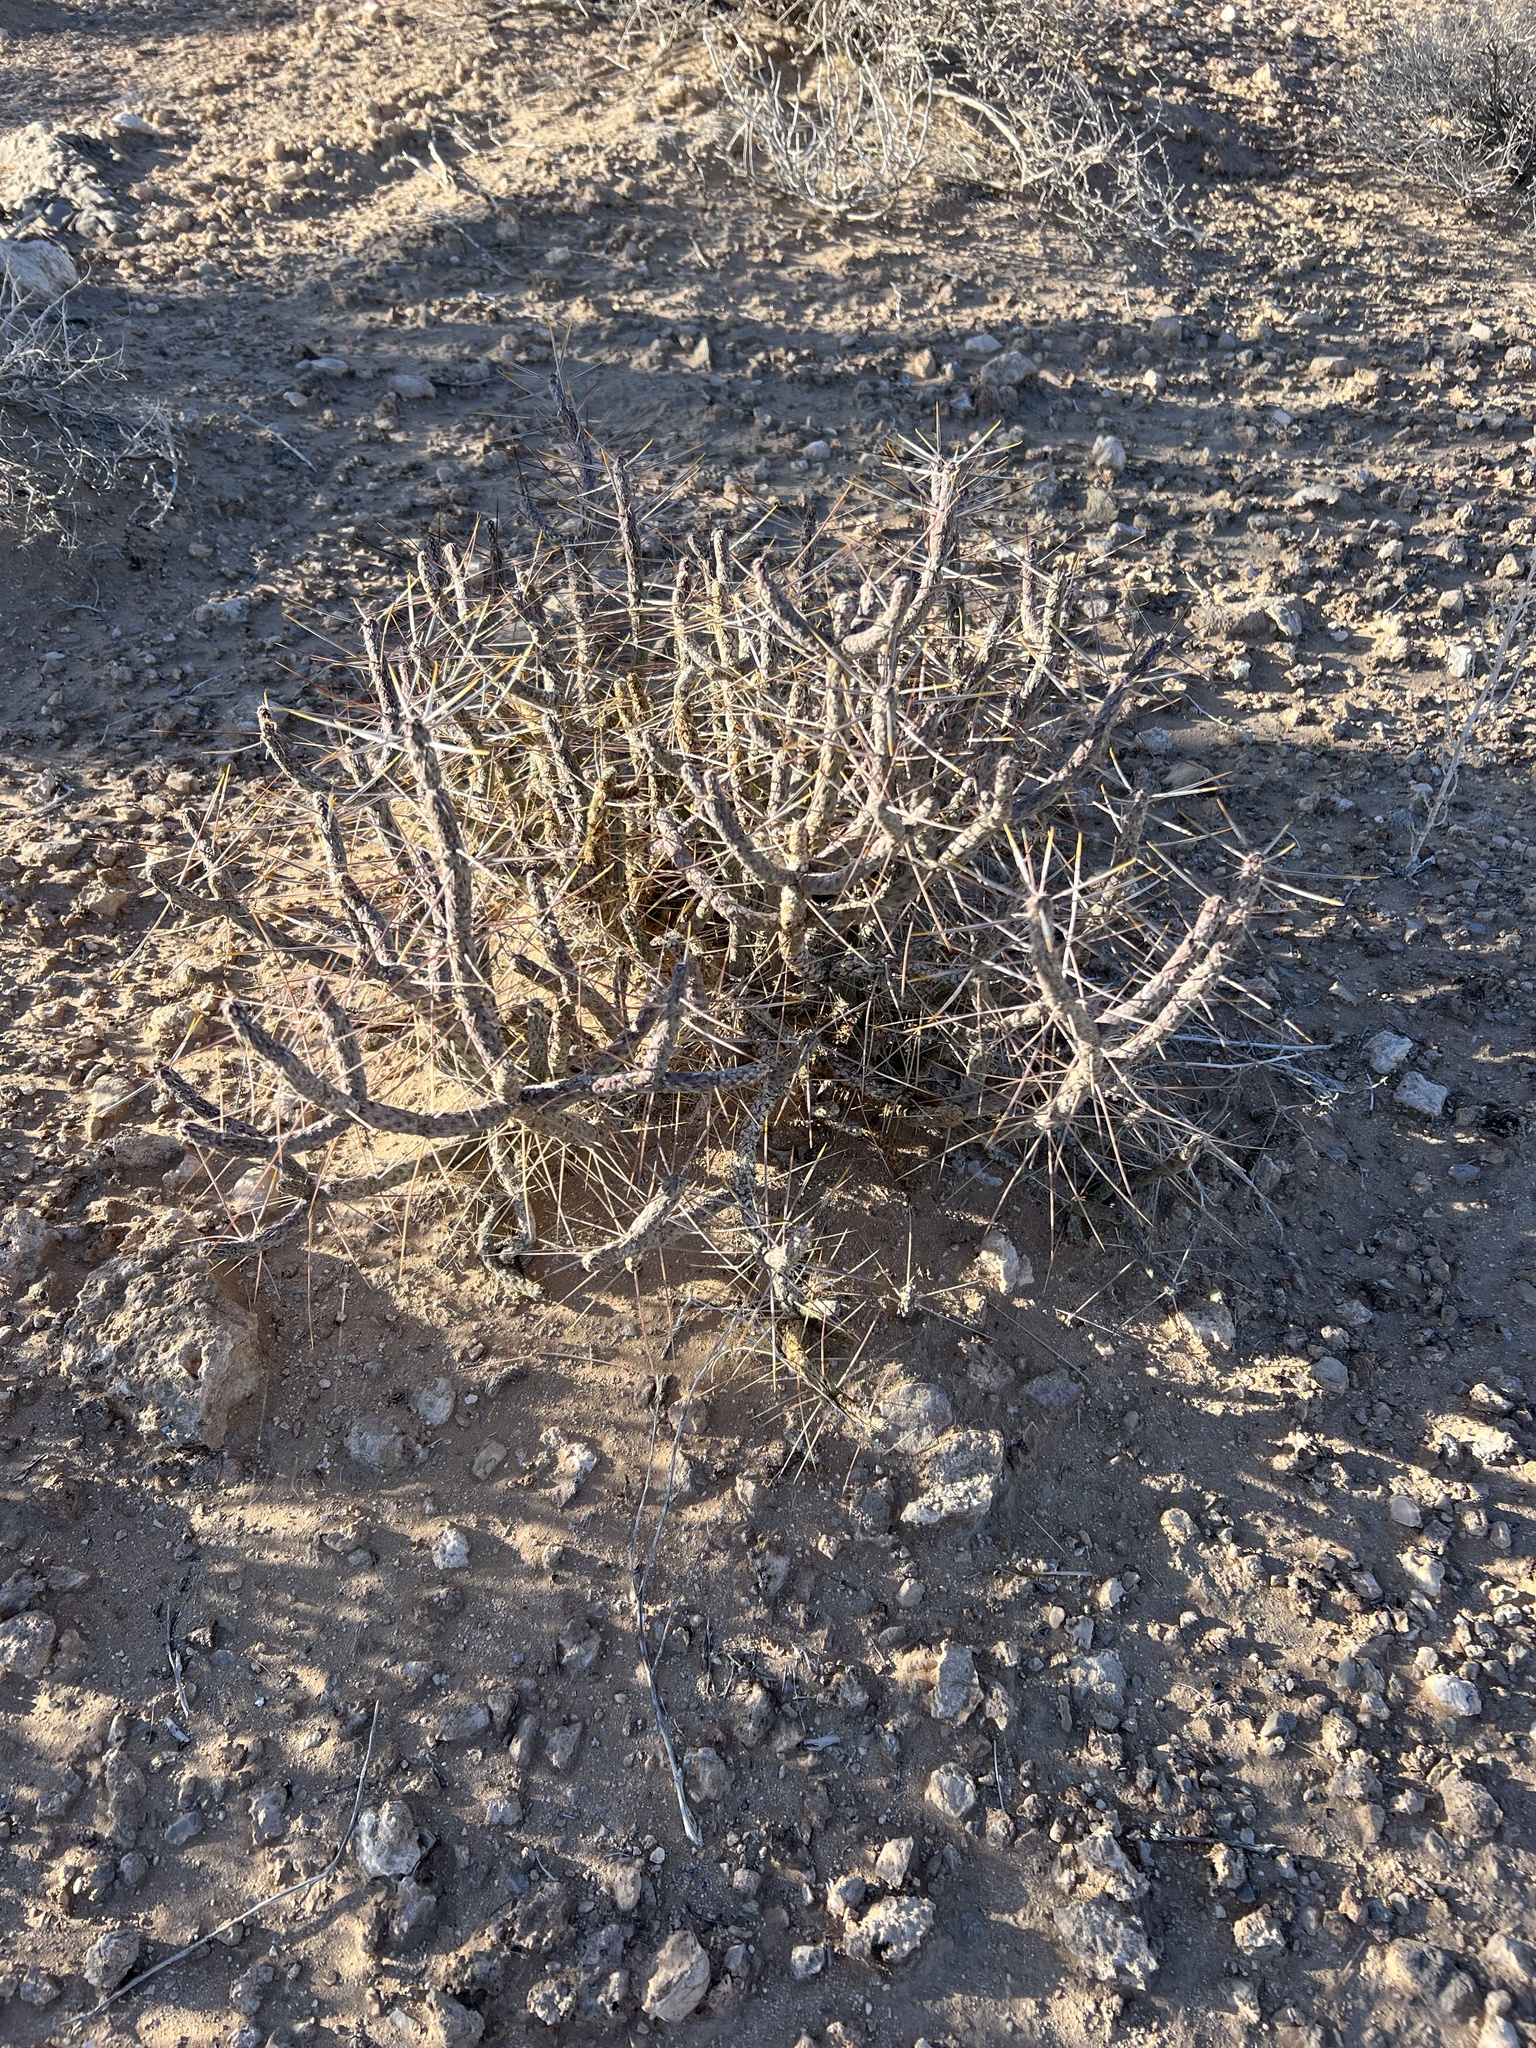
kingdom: Plantae
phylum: Tracheophyta
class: Magnoliopsida
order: Caryophyllales
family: Cactaceae
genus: Cylindropuntia
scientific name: Cylindropuntia ramosissima
